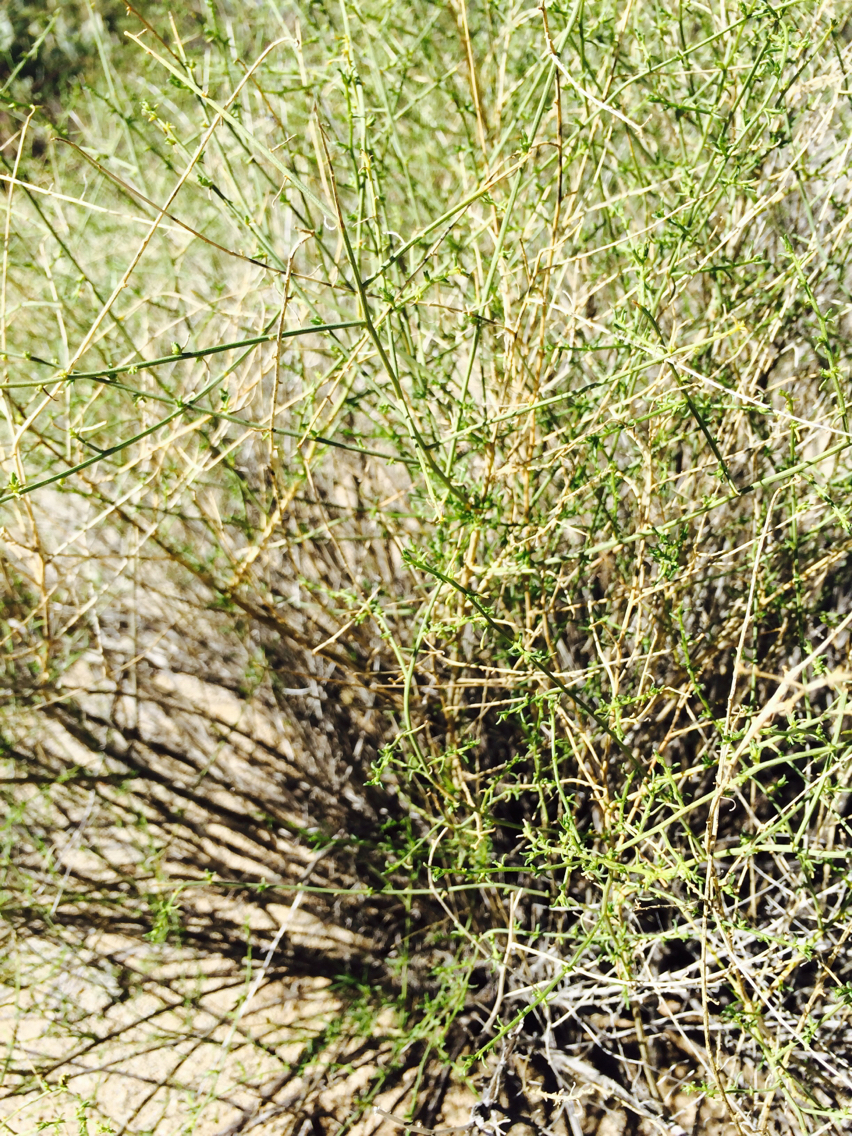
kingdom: Plantae
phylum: Tracheophyta
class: Magnoliopsida
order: Asterales
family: Asteraceae
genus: Ambrosia
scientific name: Ambrosia salsola
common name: Burrobrush
